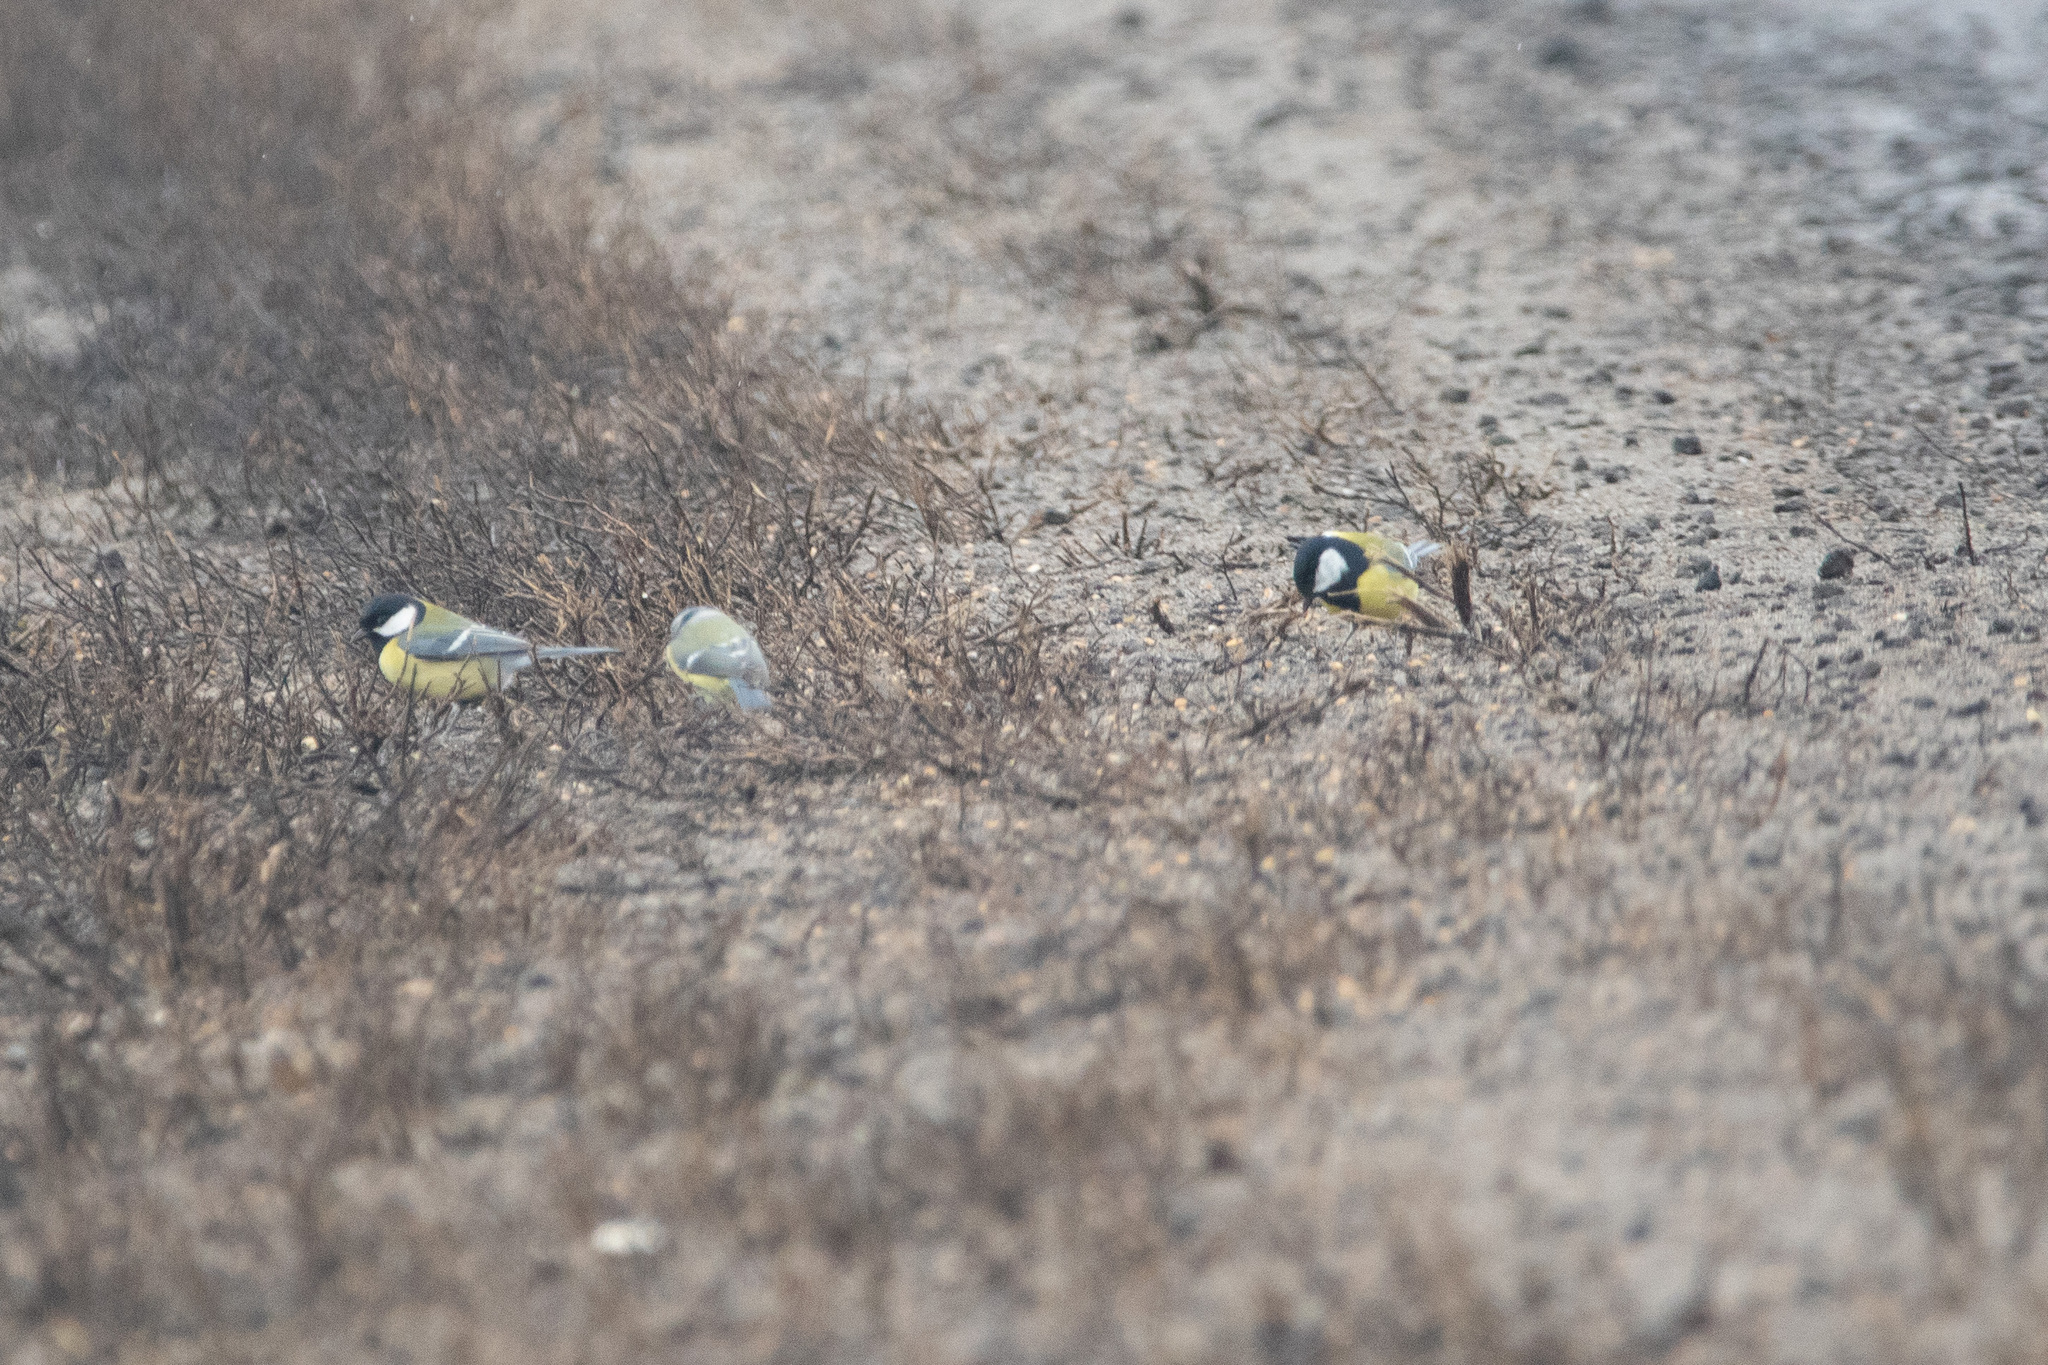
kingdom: Animalia
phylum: Chordata
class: Aves
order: Passeriformes
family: Paridae
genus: Parus
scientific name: Parus major
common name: Great tit
